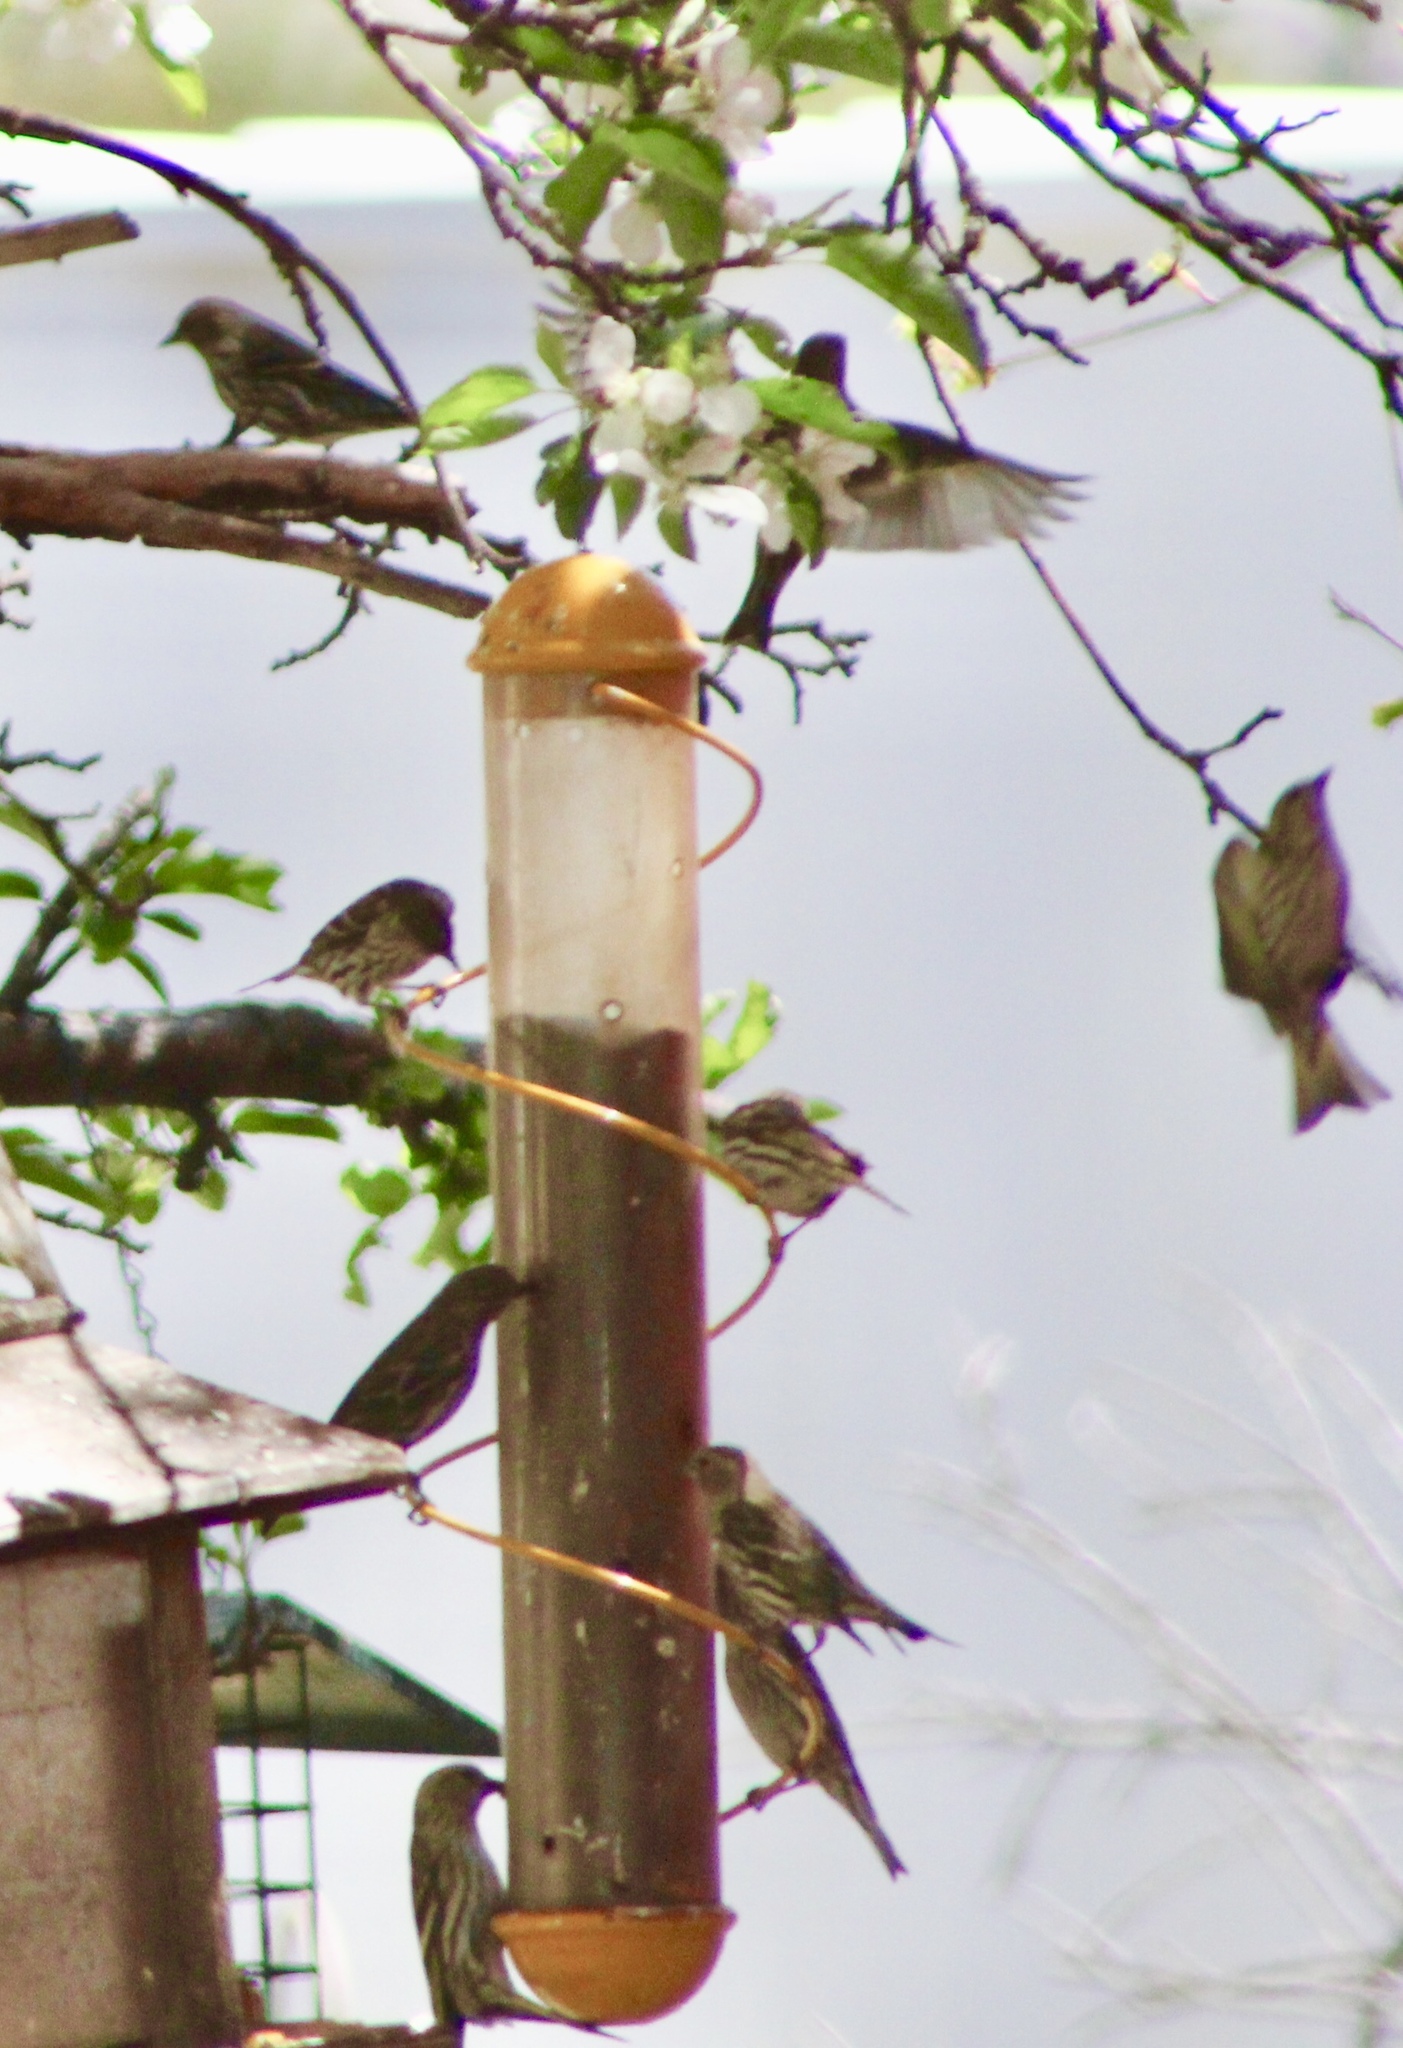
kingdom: Animalia
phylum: Chordata
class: Aves
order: Passeriformes
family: Fringillidae
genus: Spinus
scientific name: Spinus pinus
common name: Pine siskin
